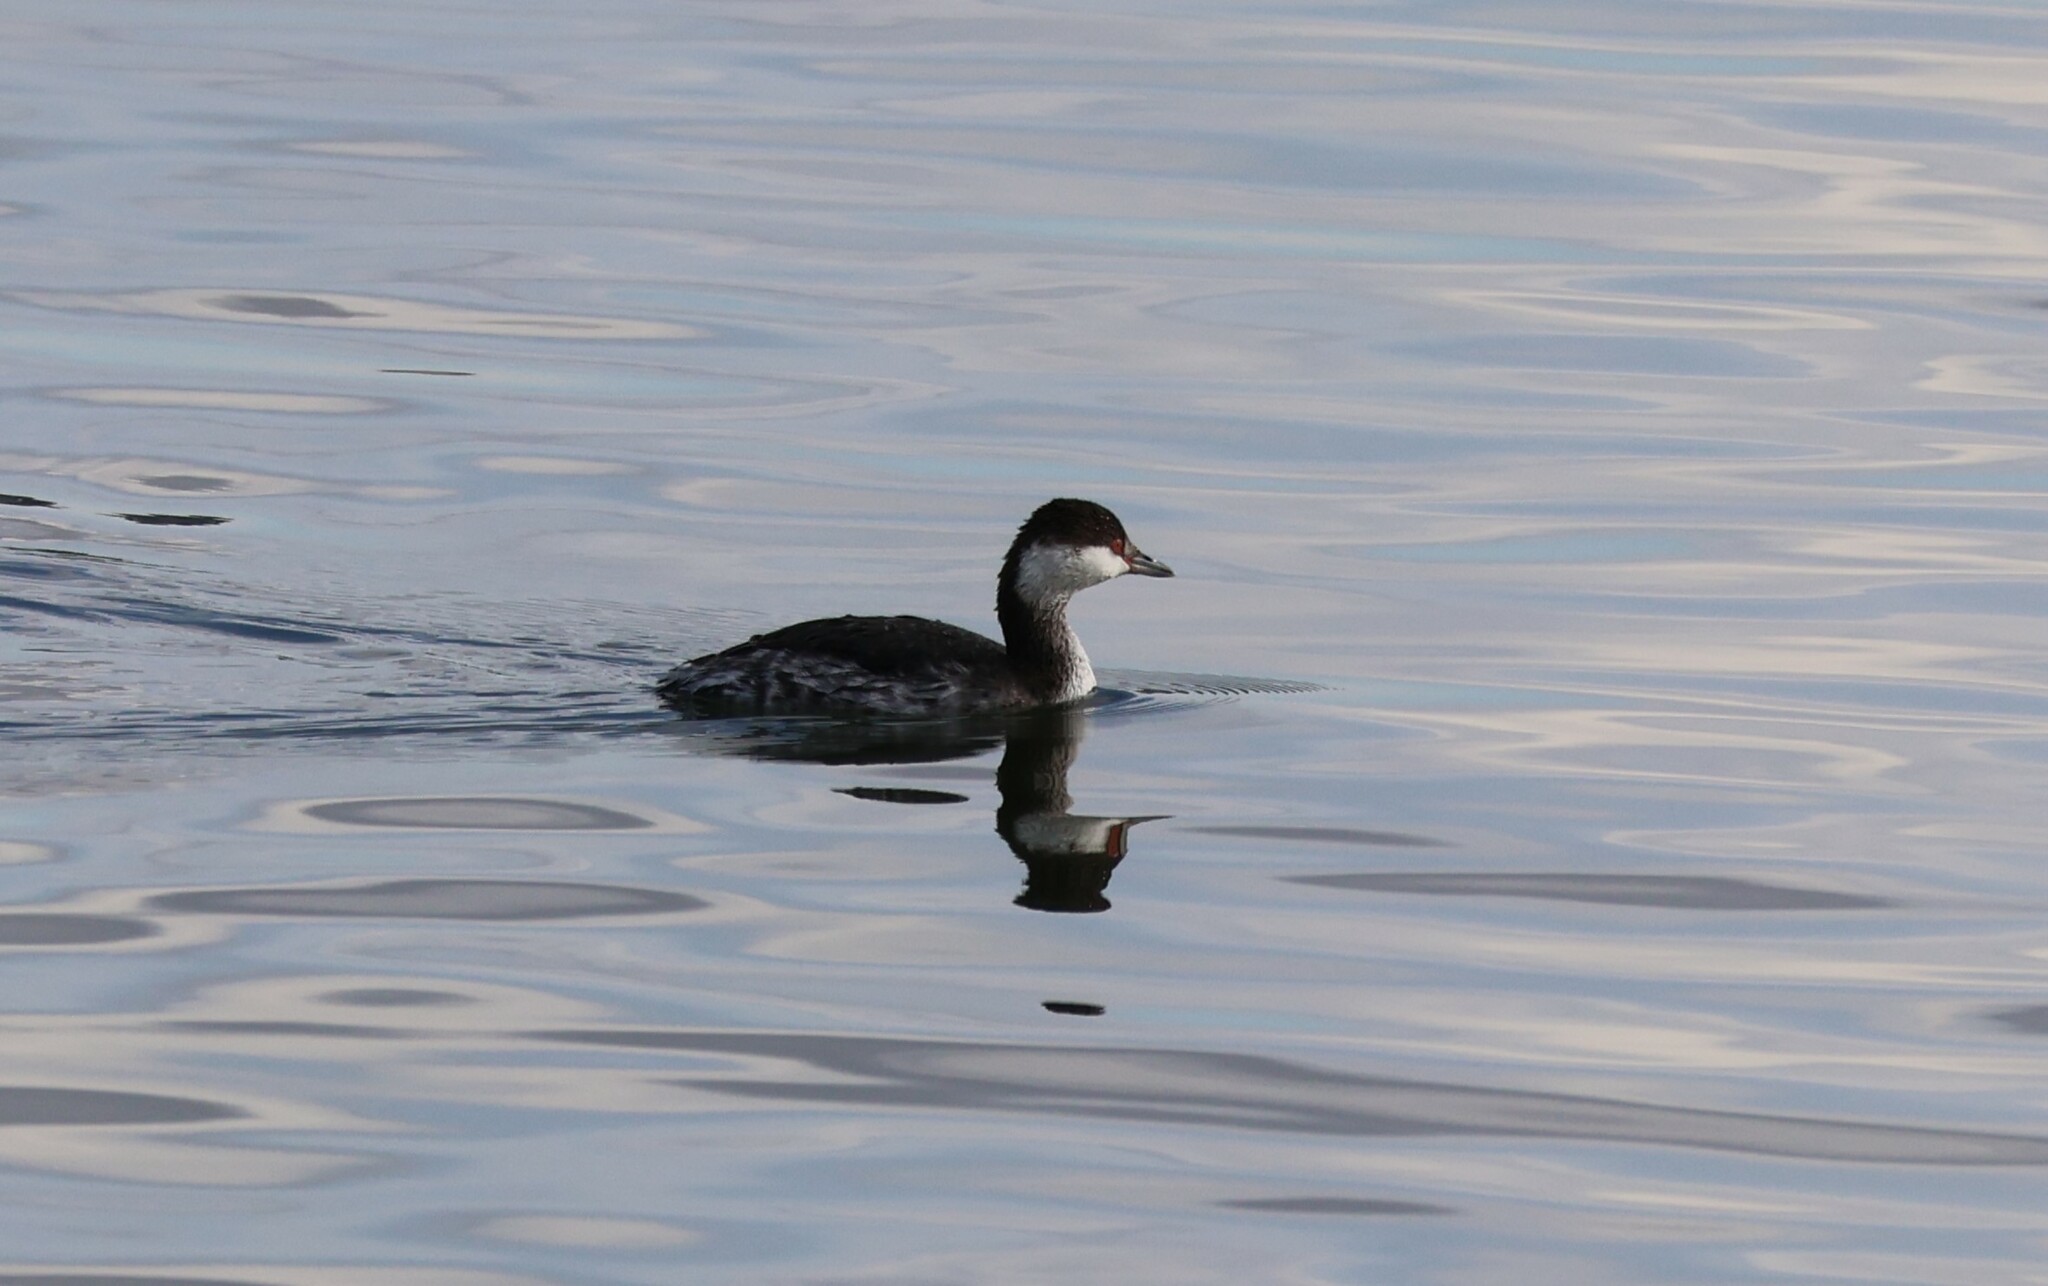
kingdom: Animalia
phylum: Chordata
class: Aves
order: Podicipediformes
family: Podicipedidae
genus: Podiceps
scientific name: Podiceps auritus
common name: Horned grebe
